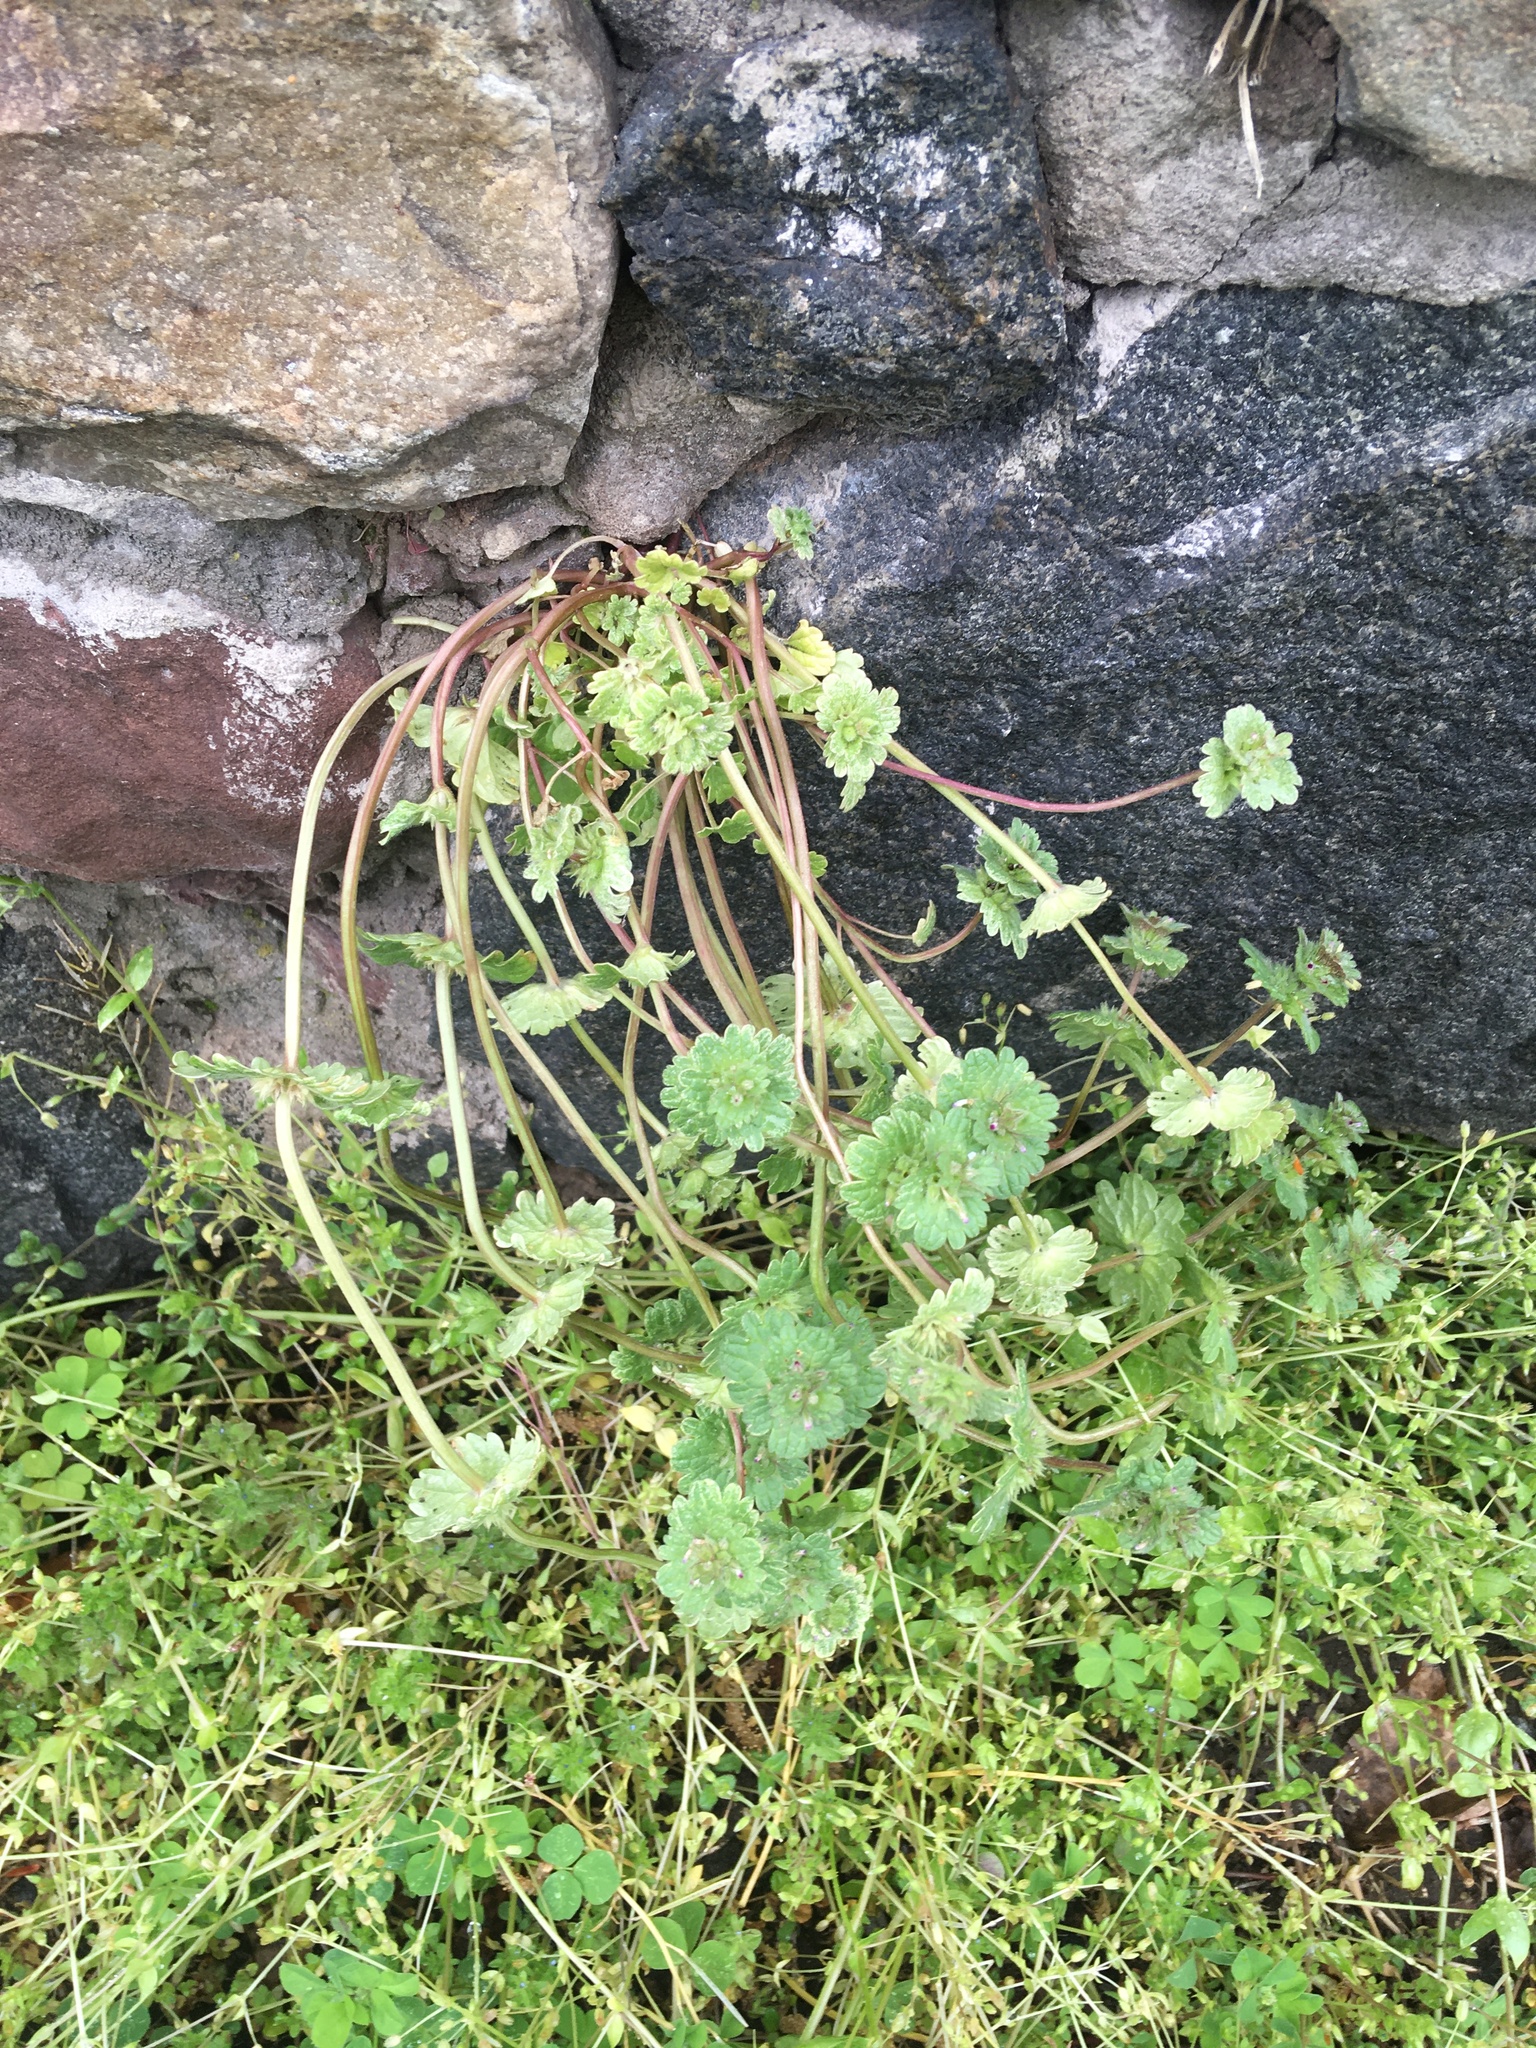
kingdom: Plantae
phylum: Tracheophyta
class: Magnoliopsida
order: Lamiales
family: Lamiaceae
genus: Lamium
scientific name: Lamium amplexicaule
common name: Henbit dead-nettle
